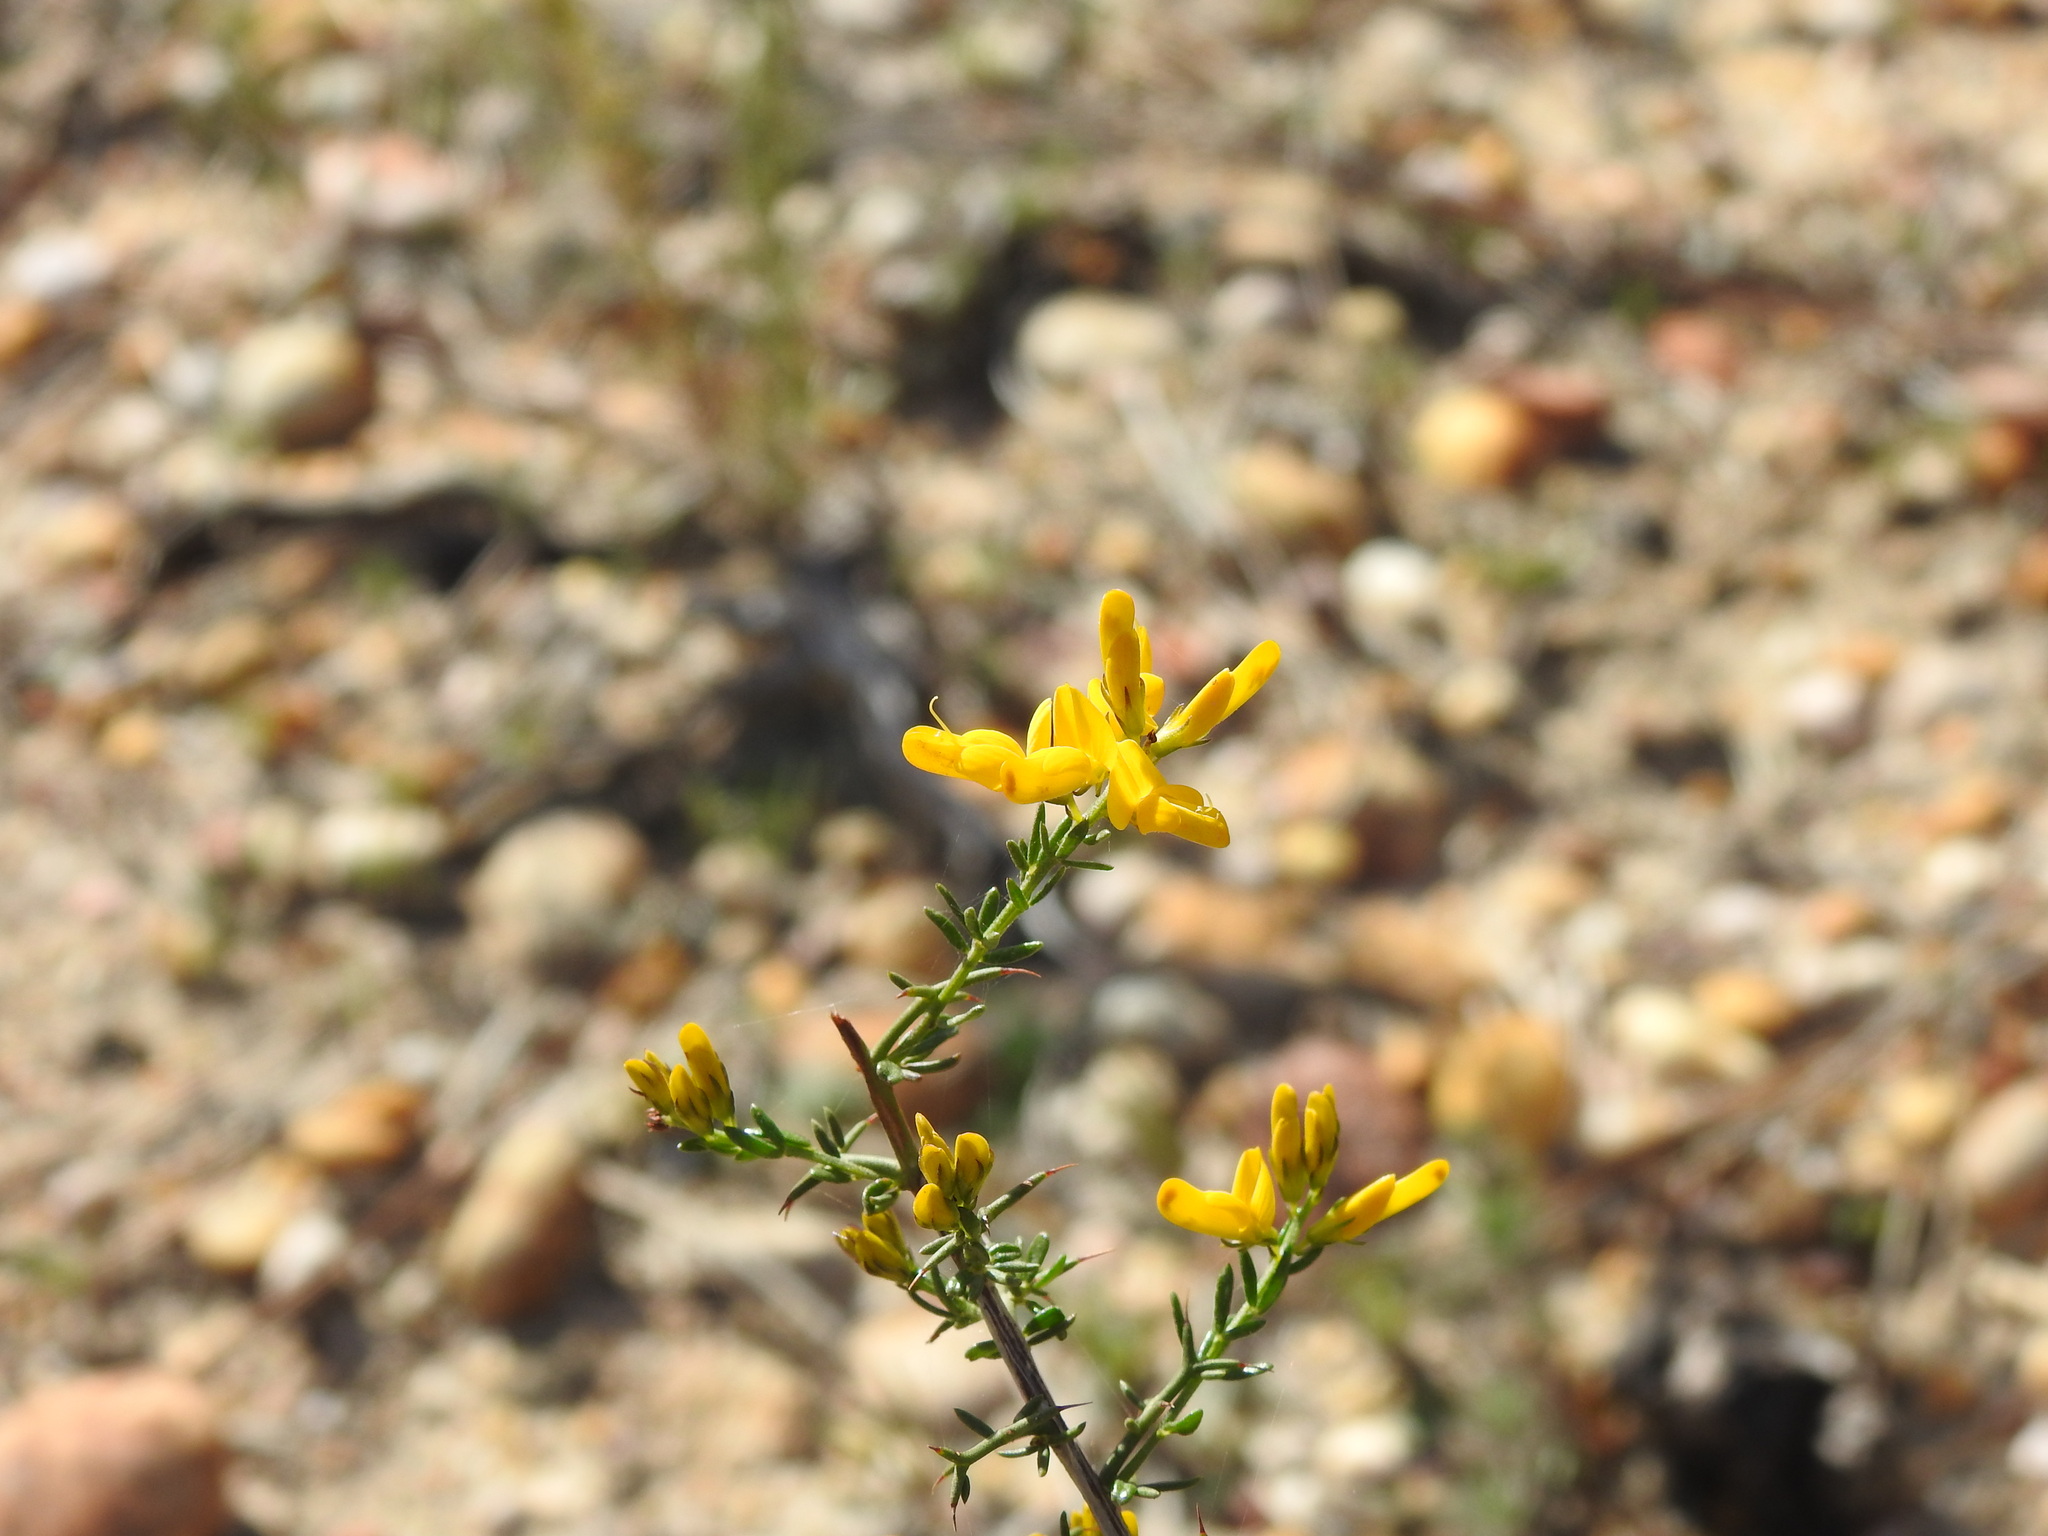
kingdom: Plantae
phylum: Tracheophyta
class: Magnoliopsida
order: Fabales
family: Fabaceae
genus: Genista
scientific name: Genista triacanthos
